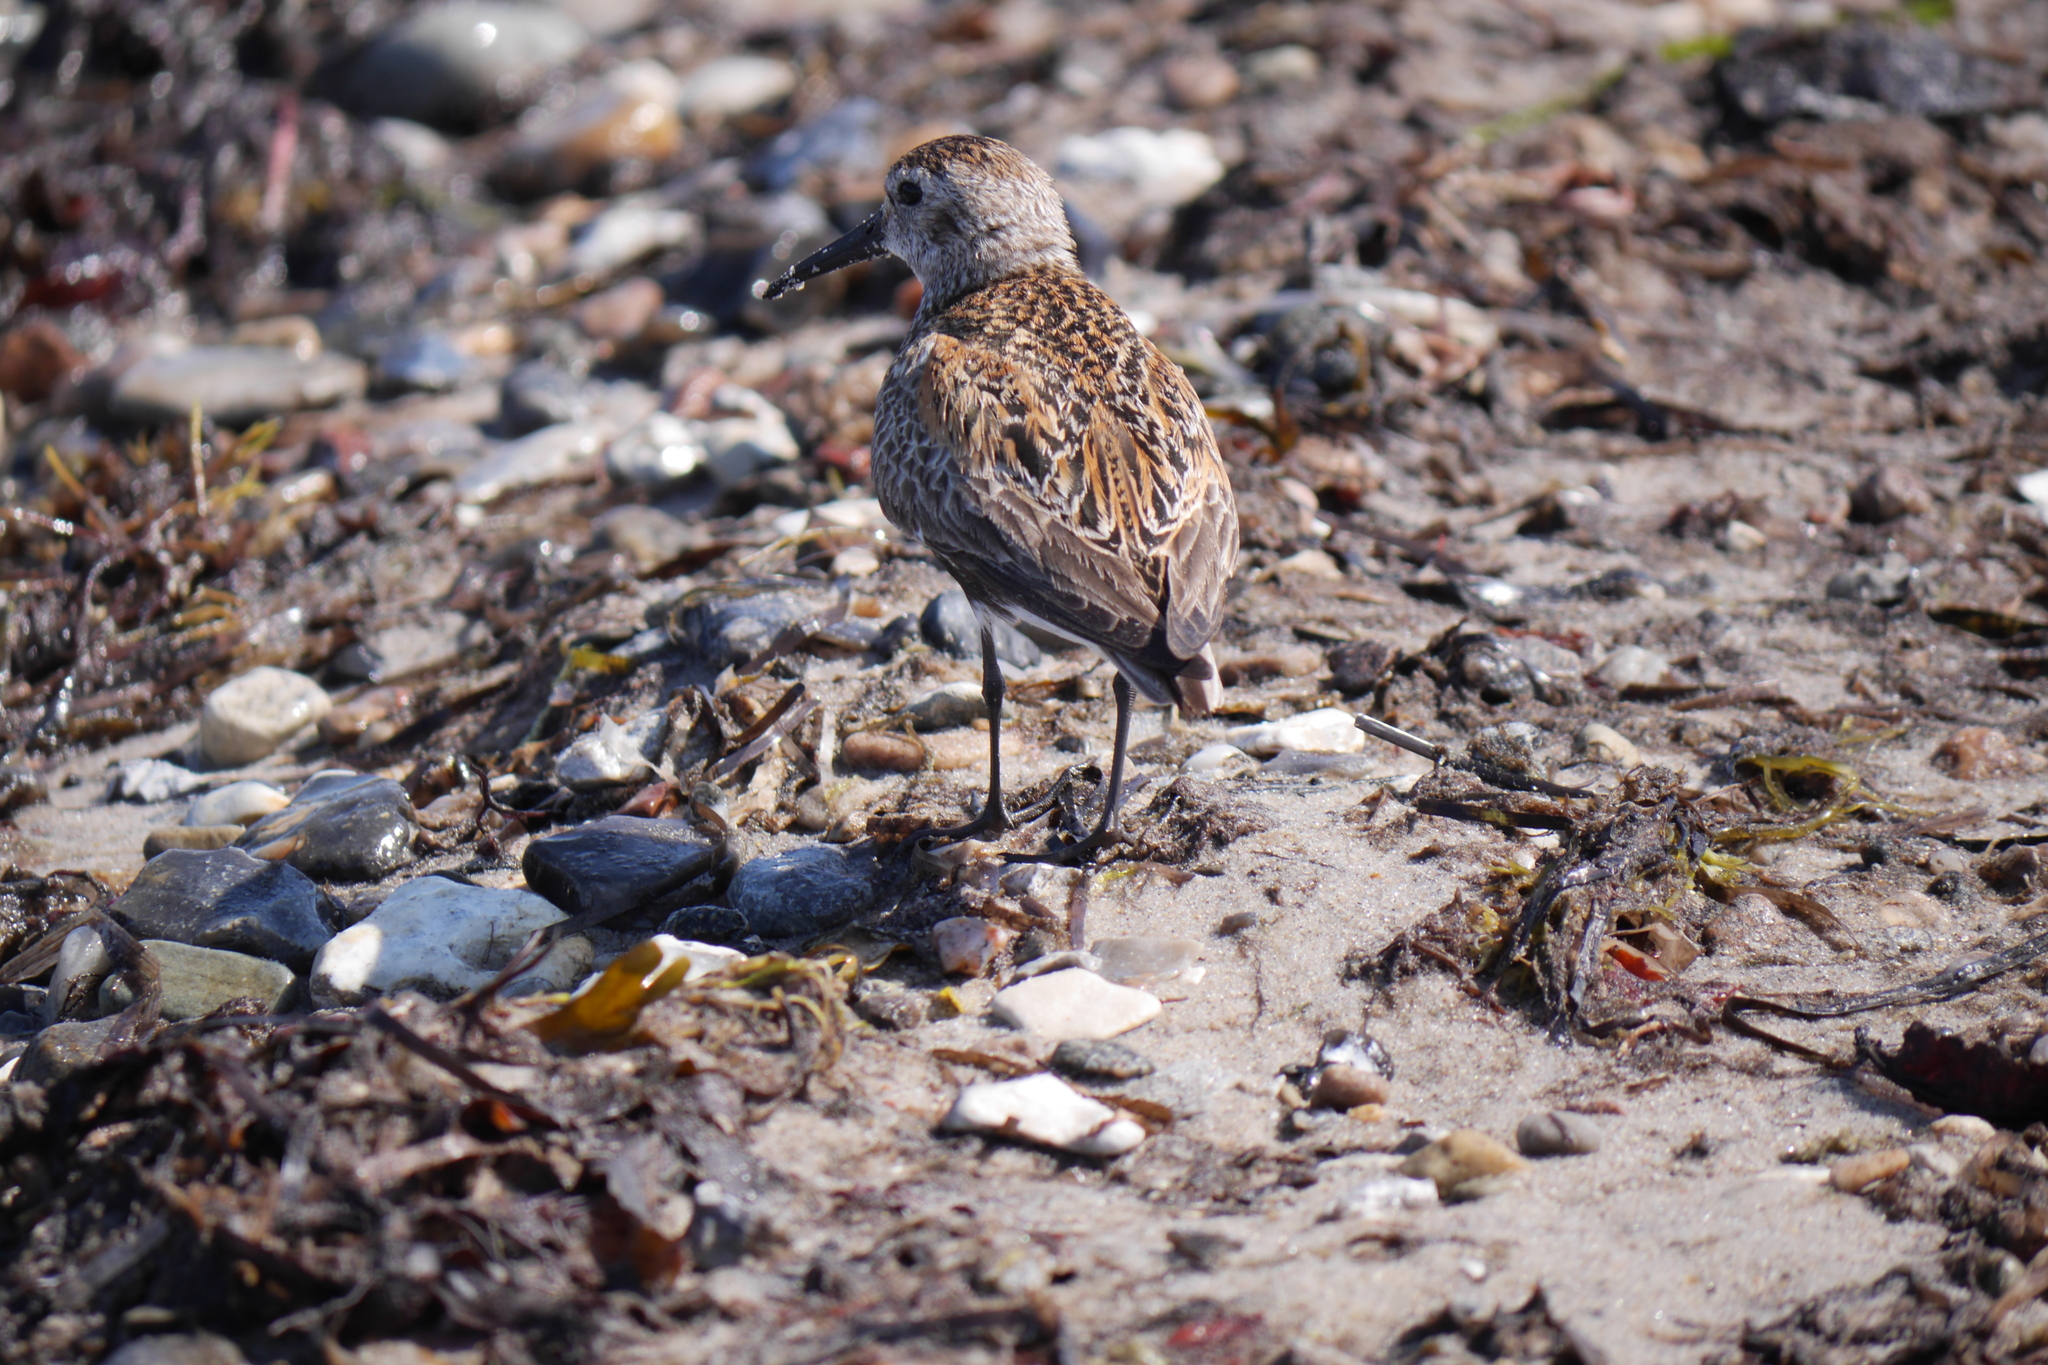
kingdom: Animalia
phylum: Chordata
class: Aves
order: Charadriiformes
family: Scolopacidae
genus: Calidris
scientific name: Calidris alpina
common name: Dunlin
